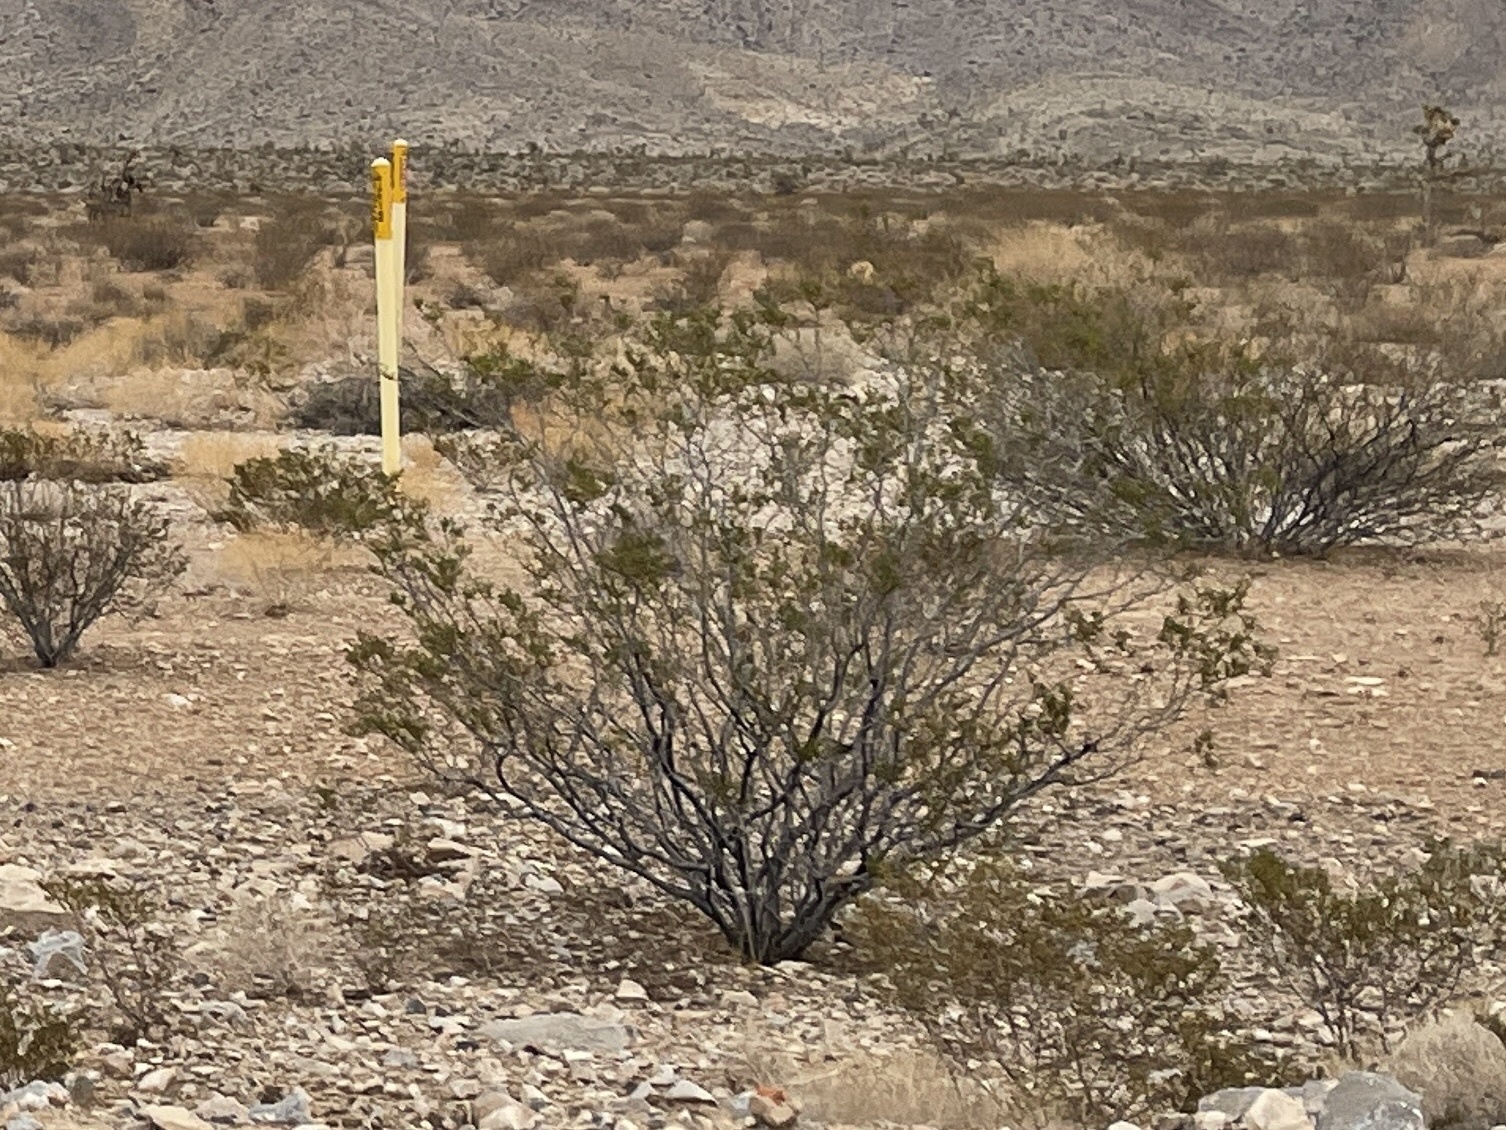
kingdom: Plantae
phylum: Tracheophyta
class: Magnoliopsida
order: Zygophyllales
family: Zygophyllaceae
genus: Larrea
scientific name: Larrea tridentata
